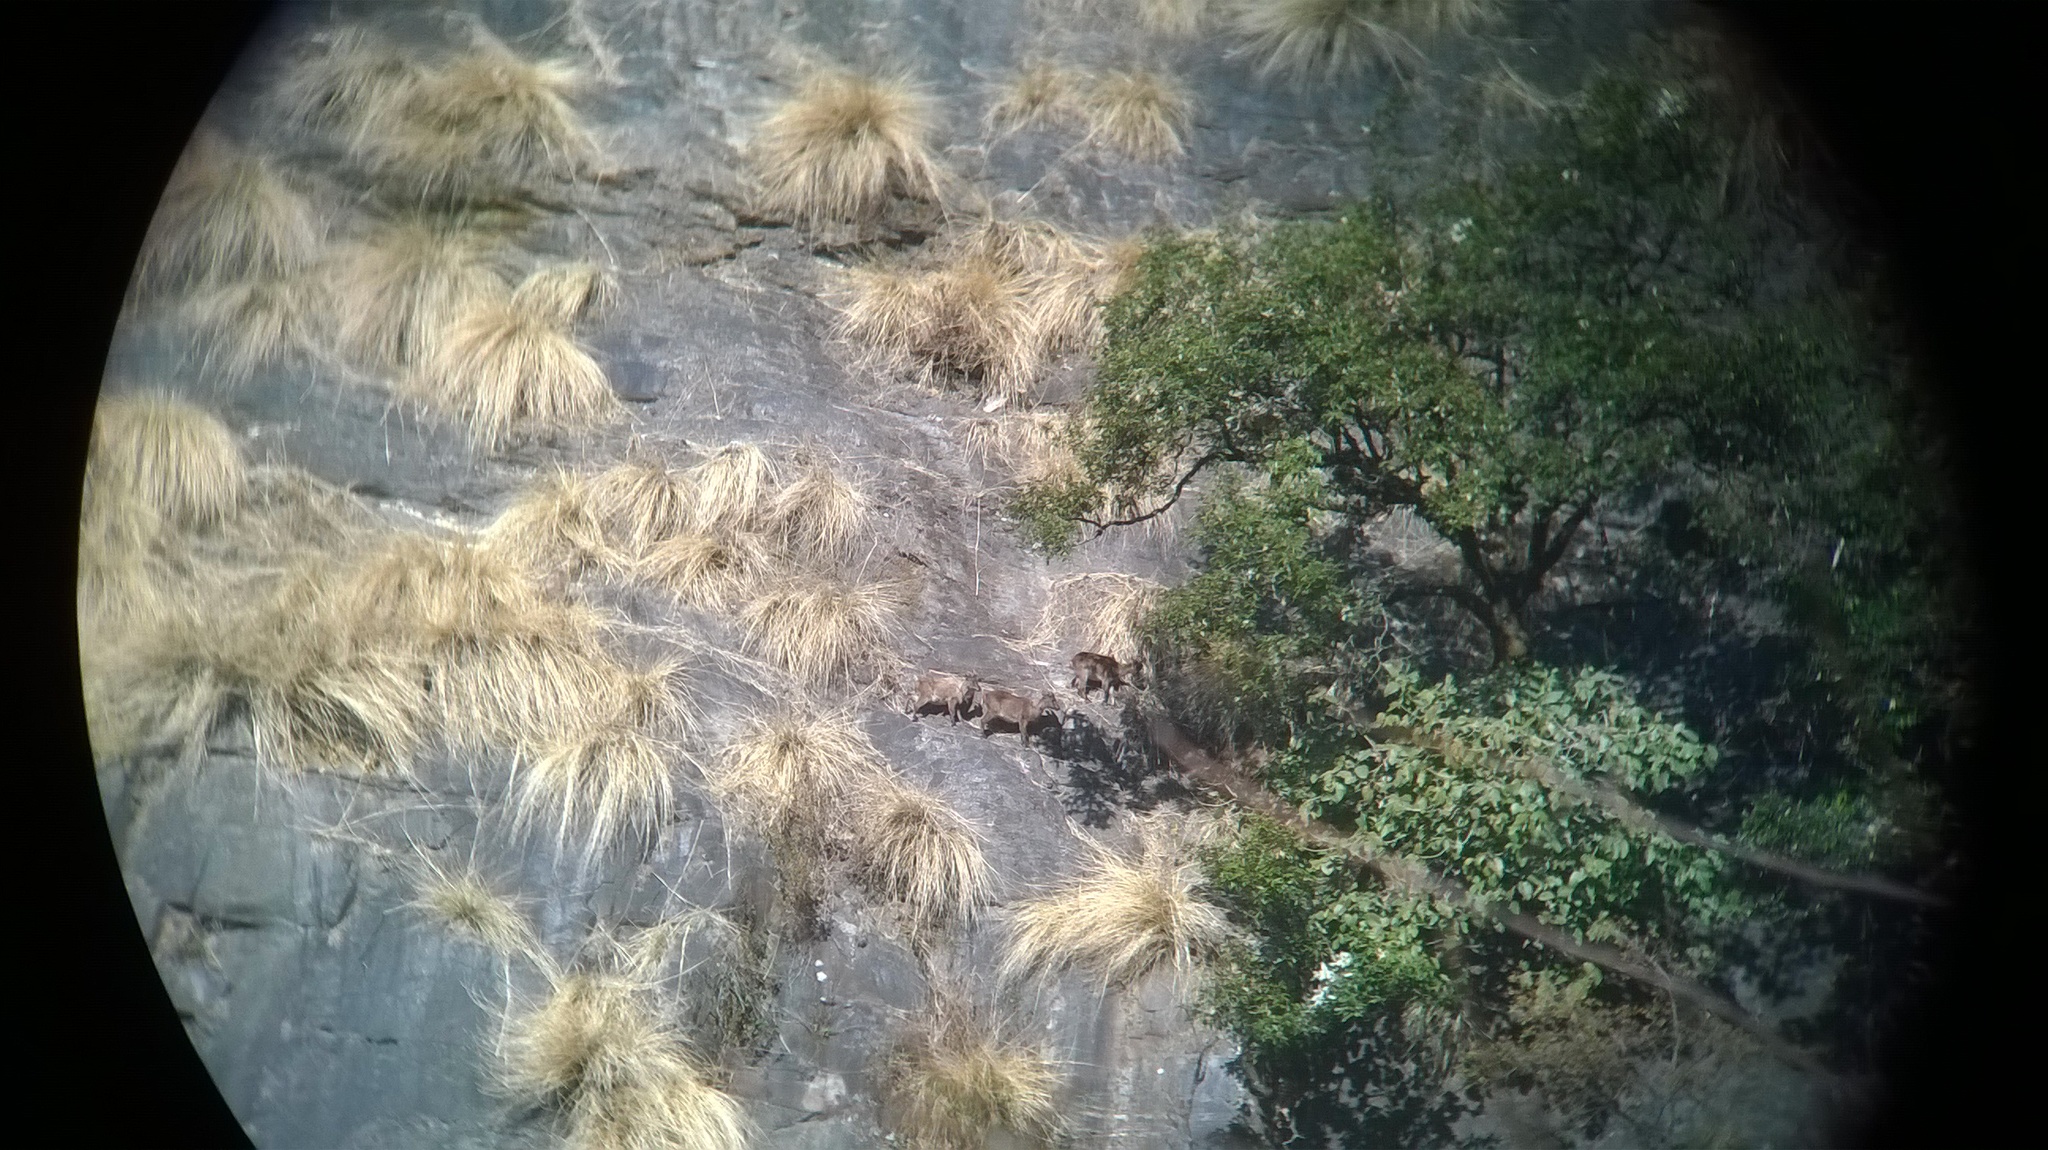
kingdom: Animalia
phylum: Chordata
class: Mammalia
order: Artiodactyla
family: Bovidae
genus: Hemitragus
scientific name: Hemitragus jemlahicus
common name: Himalayan tahr
